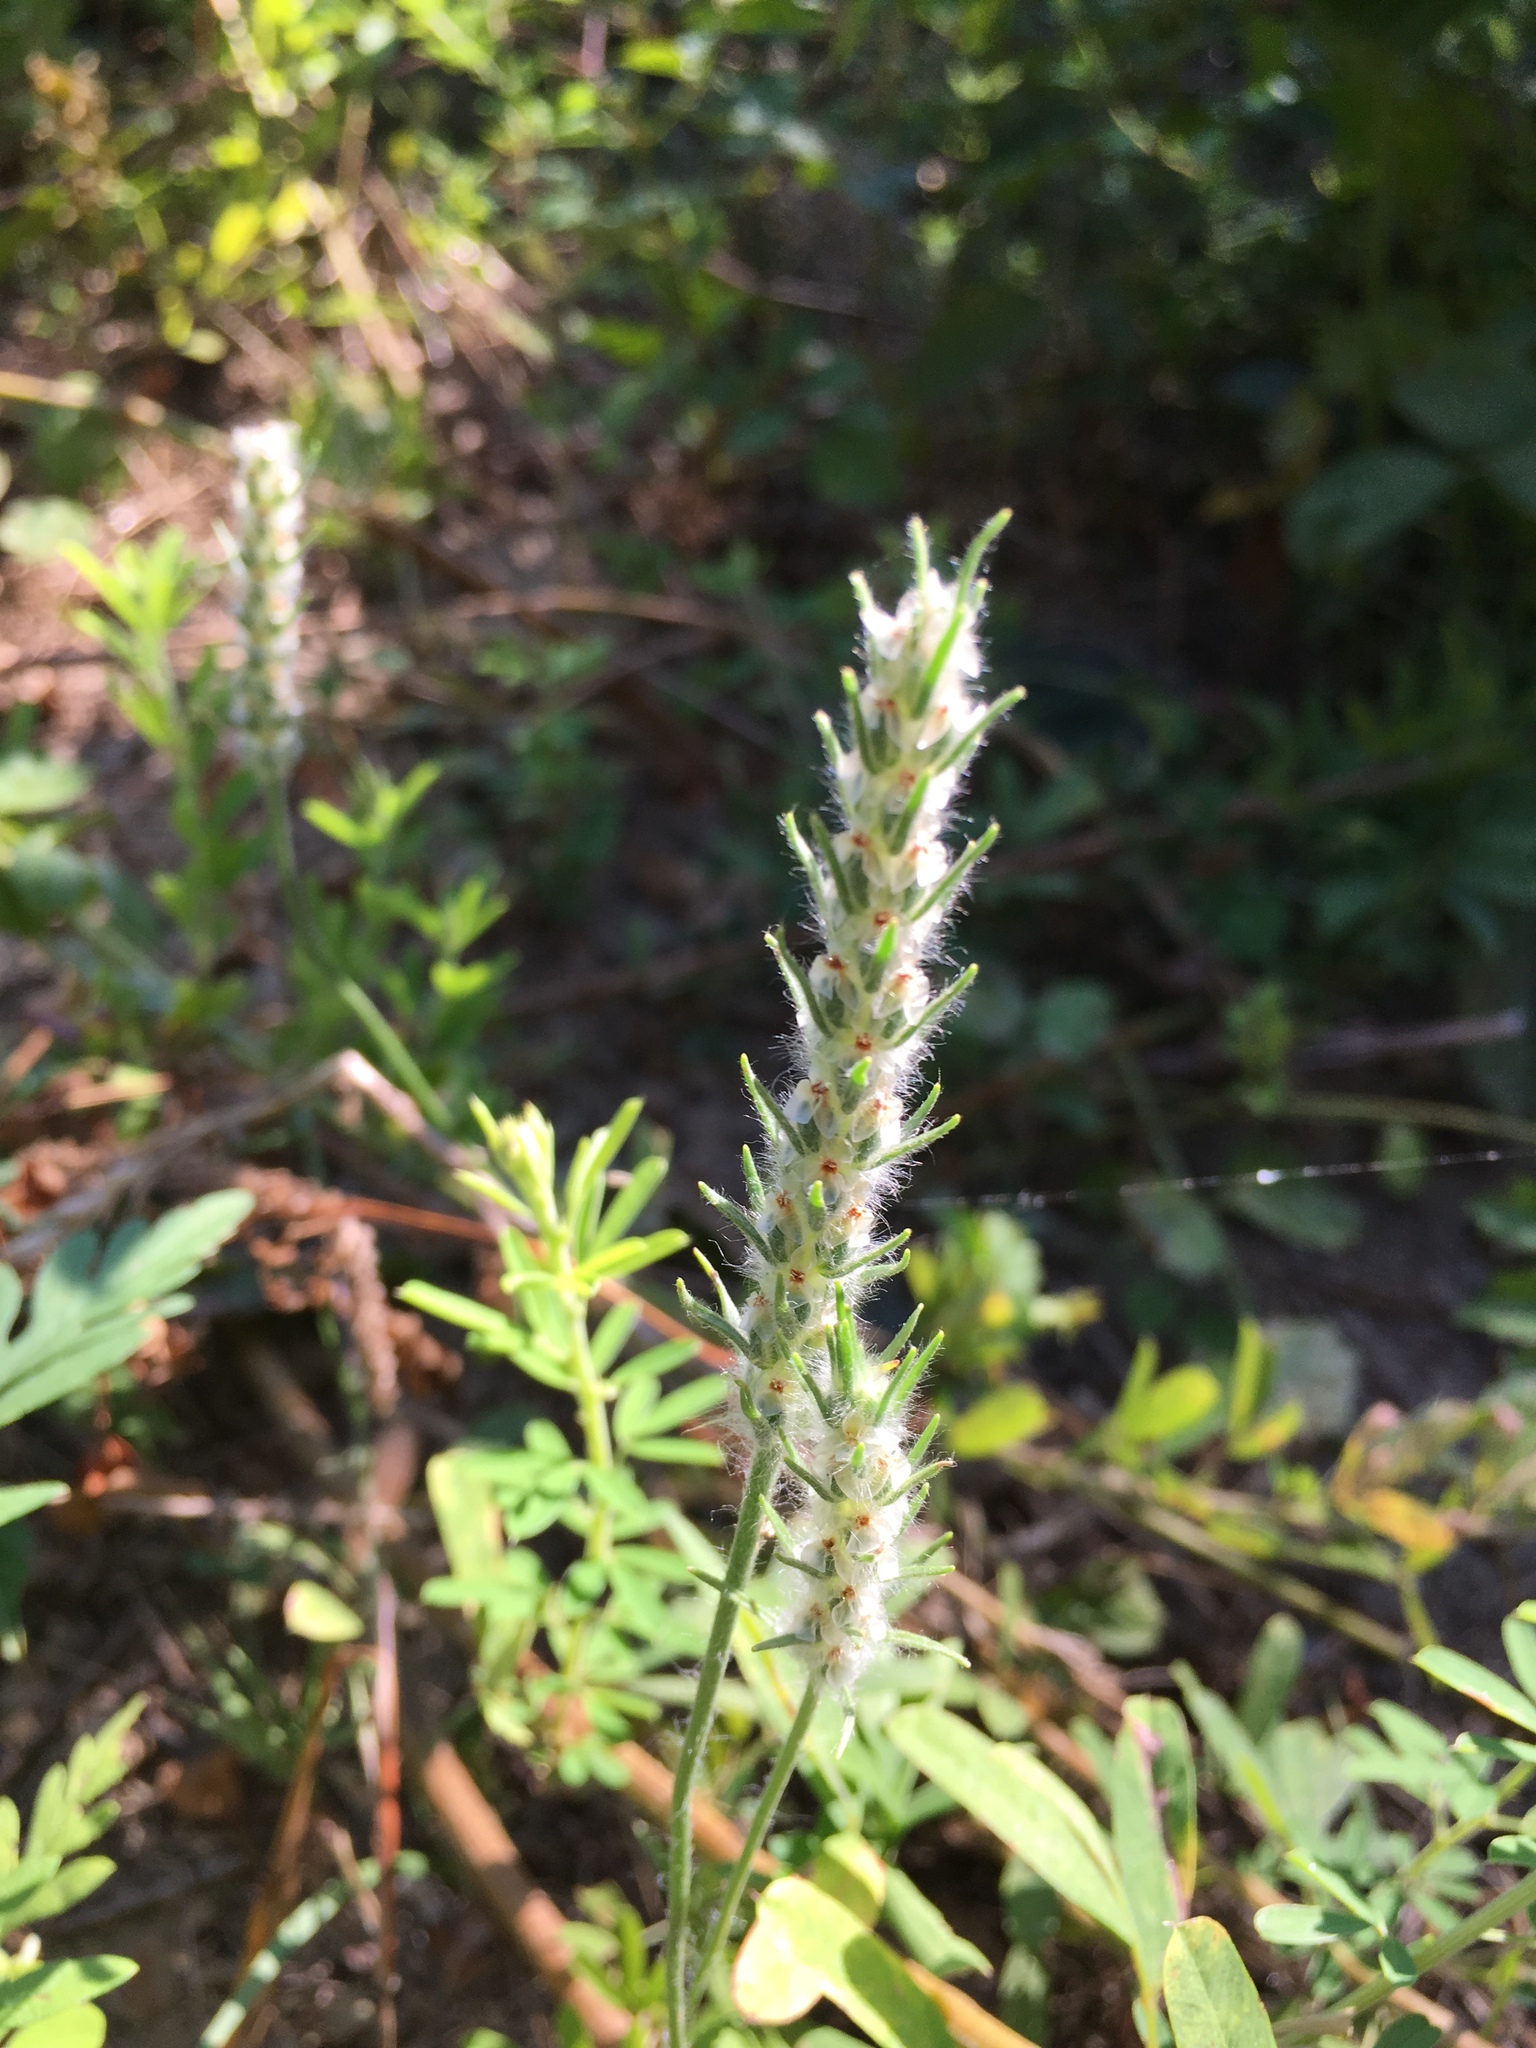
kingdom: Plantae
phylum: Tracheophyta
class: Magnoliopsida
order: Lamiales
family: Plantaginaceae
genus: Plantago
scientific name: Plantago aristata
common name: Bracted plantain
